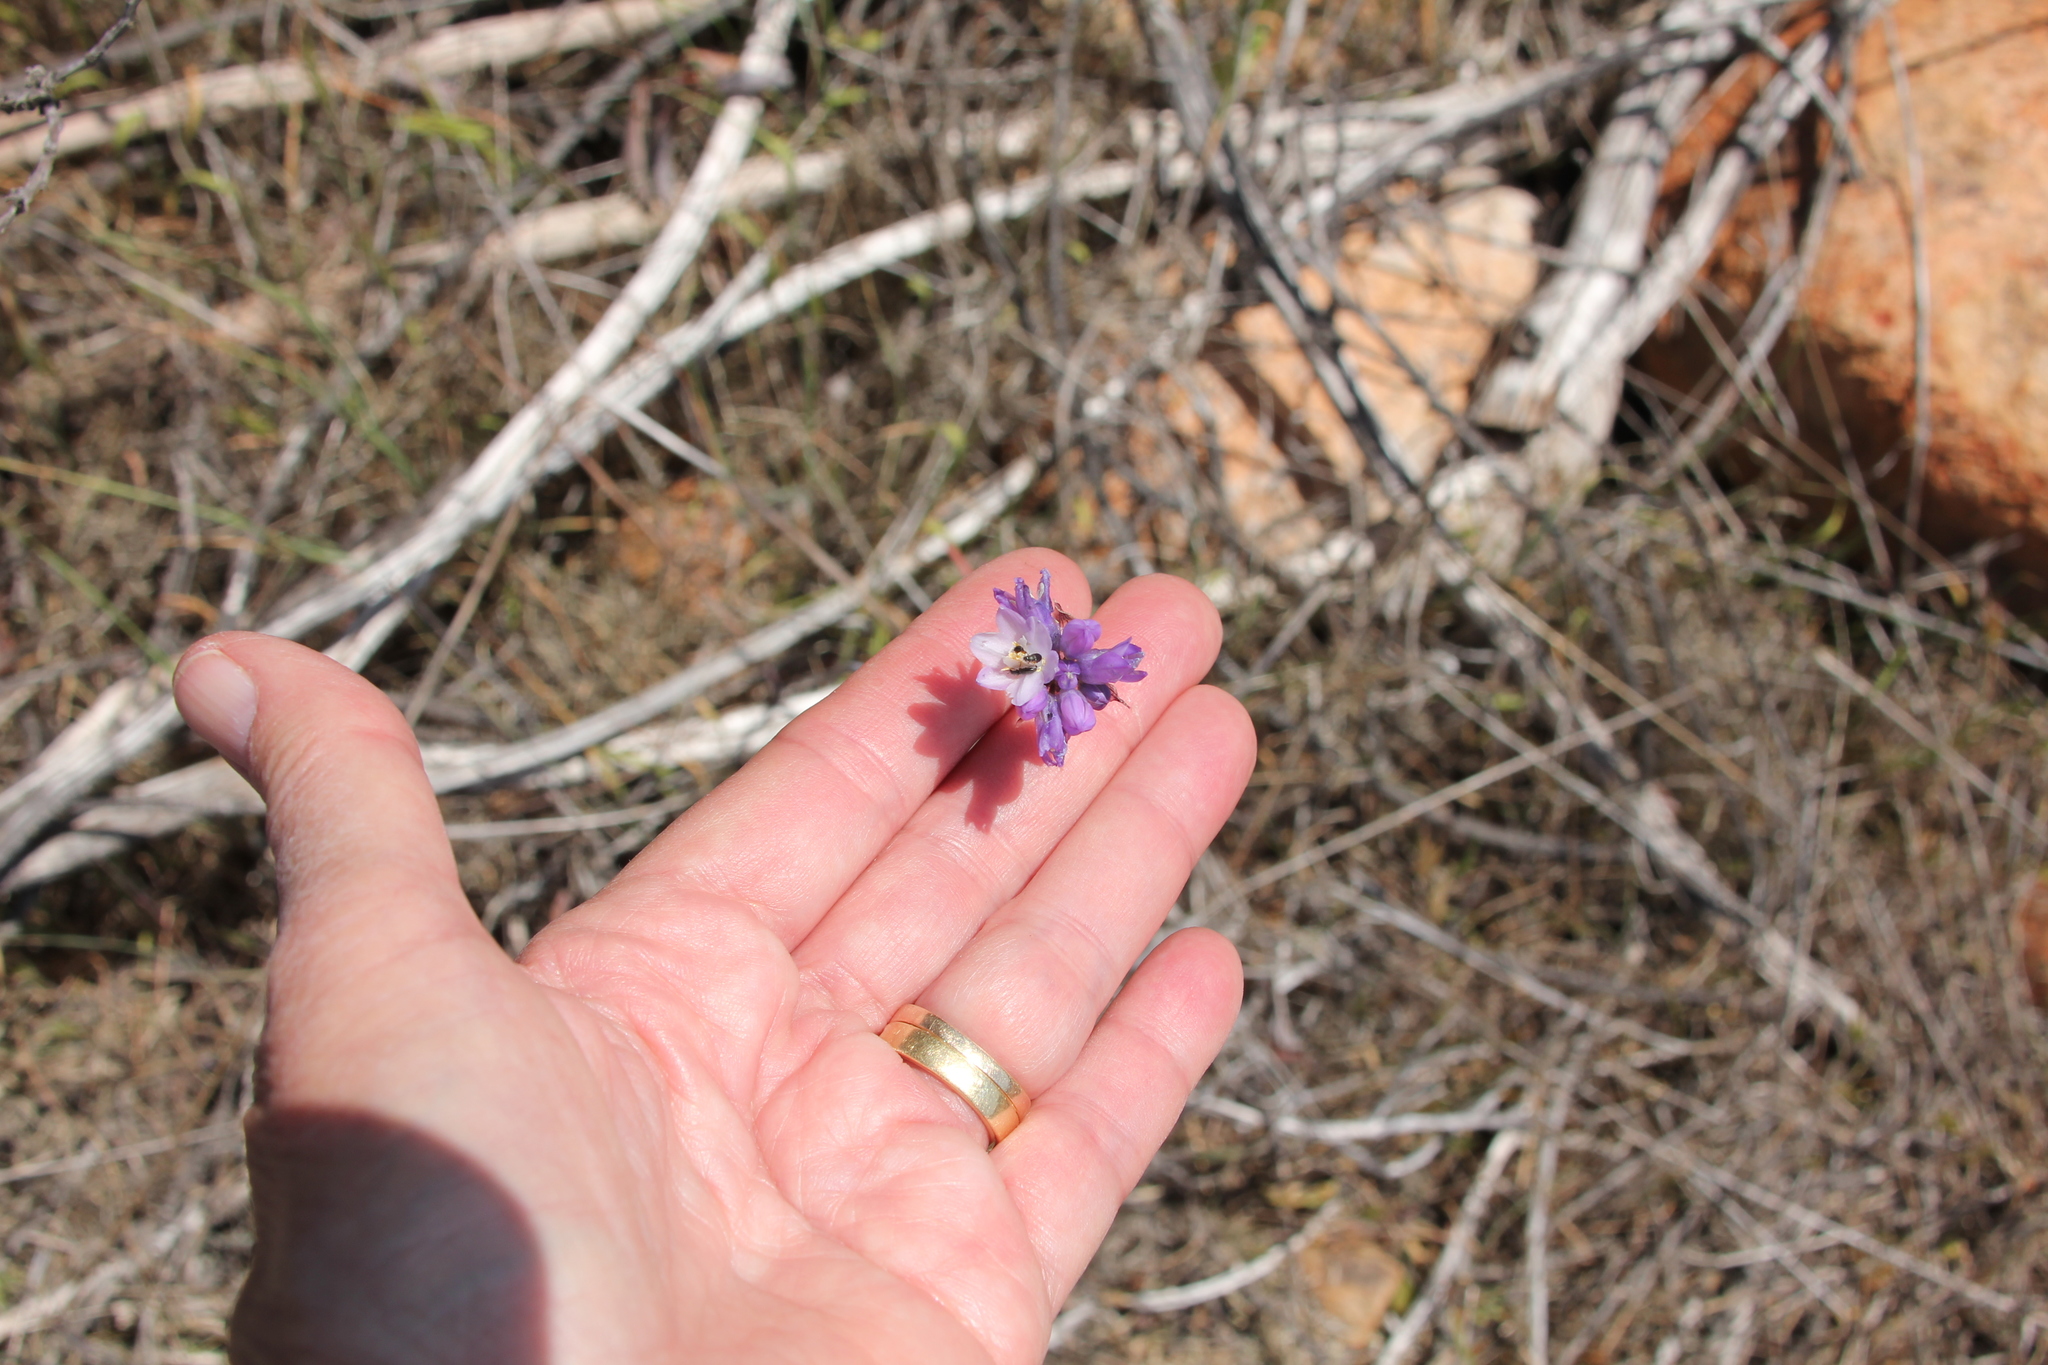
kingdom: Plantae
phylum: Tracheophyta
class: Liliopsida
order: Asparagales
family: Asparagaceae
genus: Dipterostemon
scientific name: Dipterostemon capitatus
